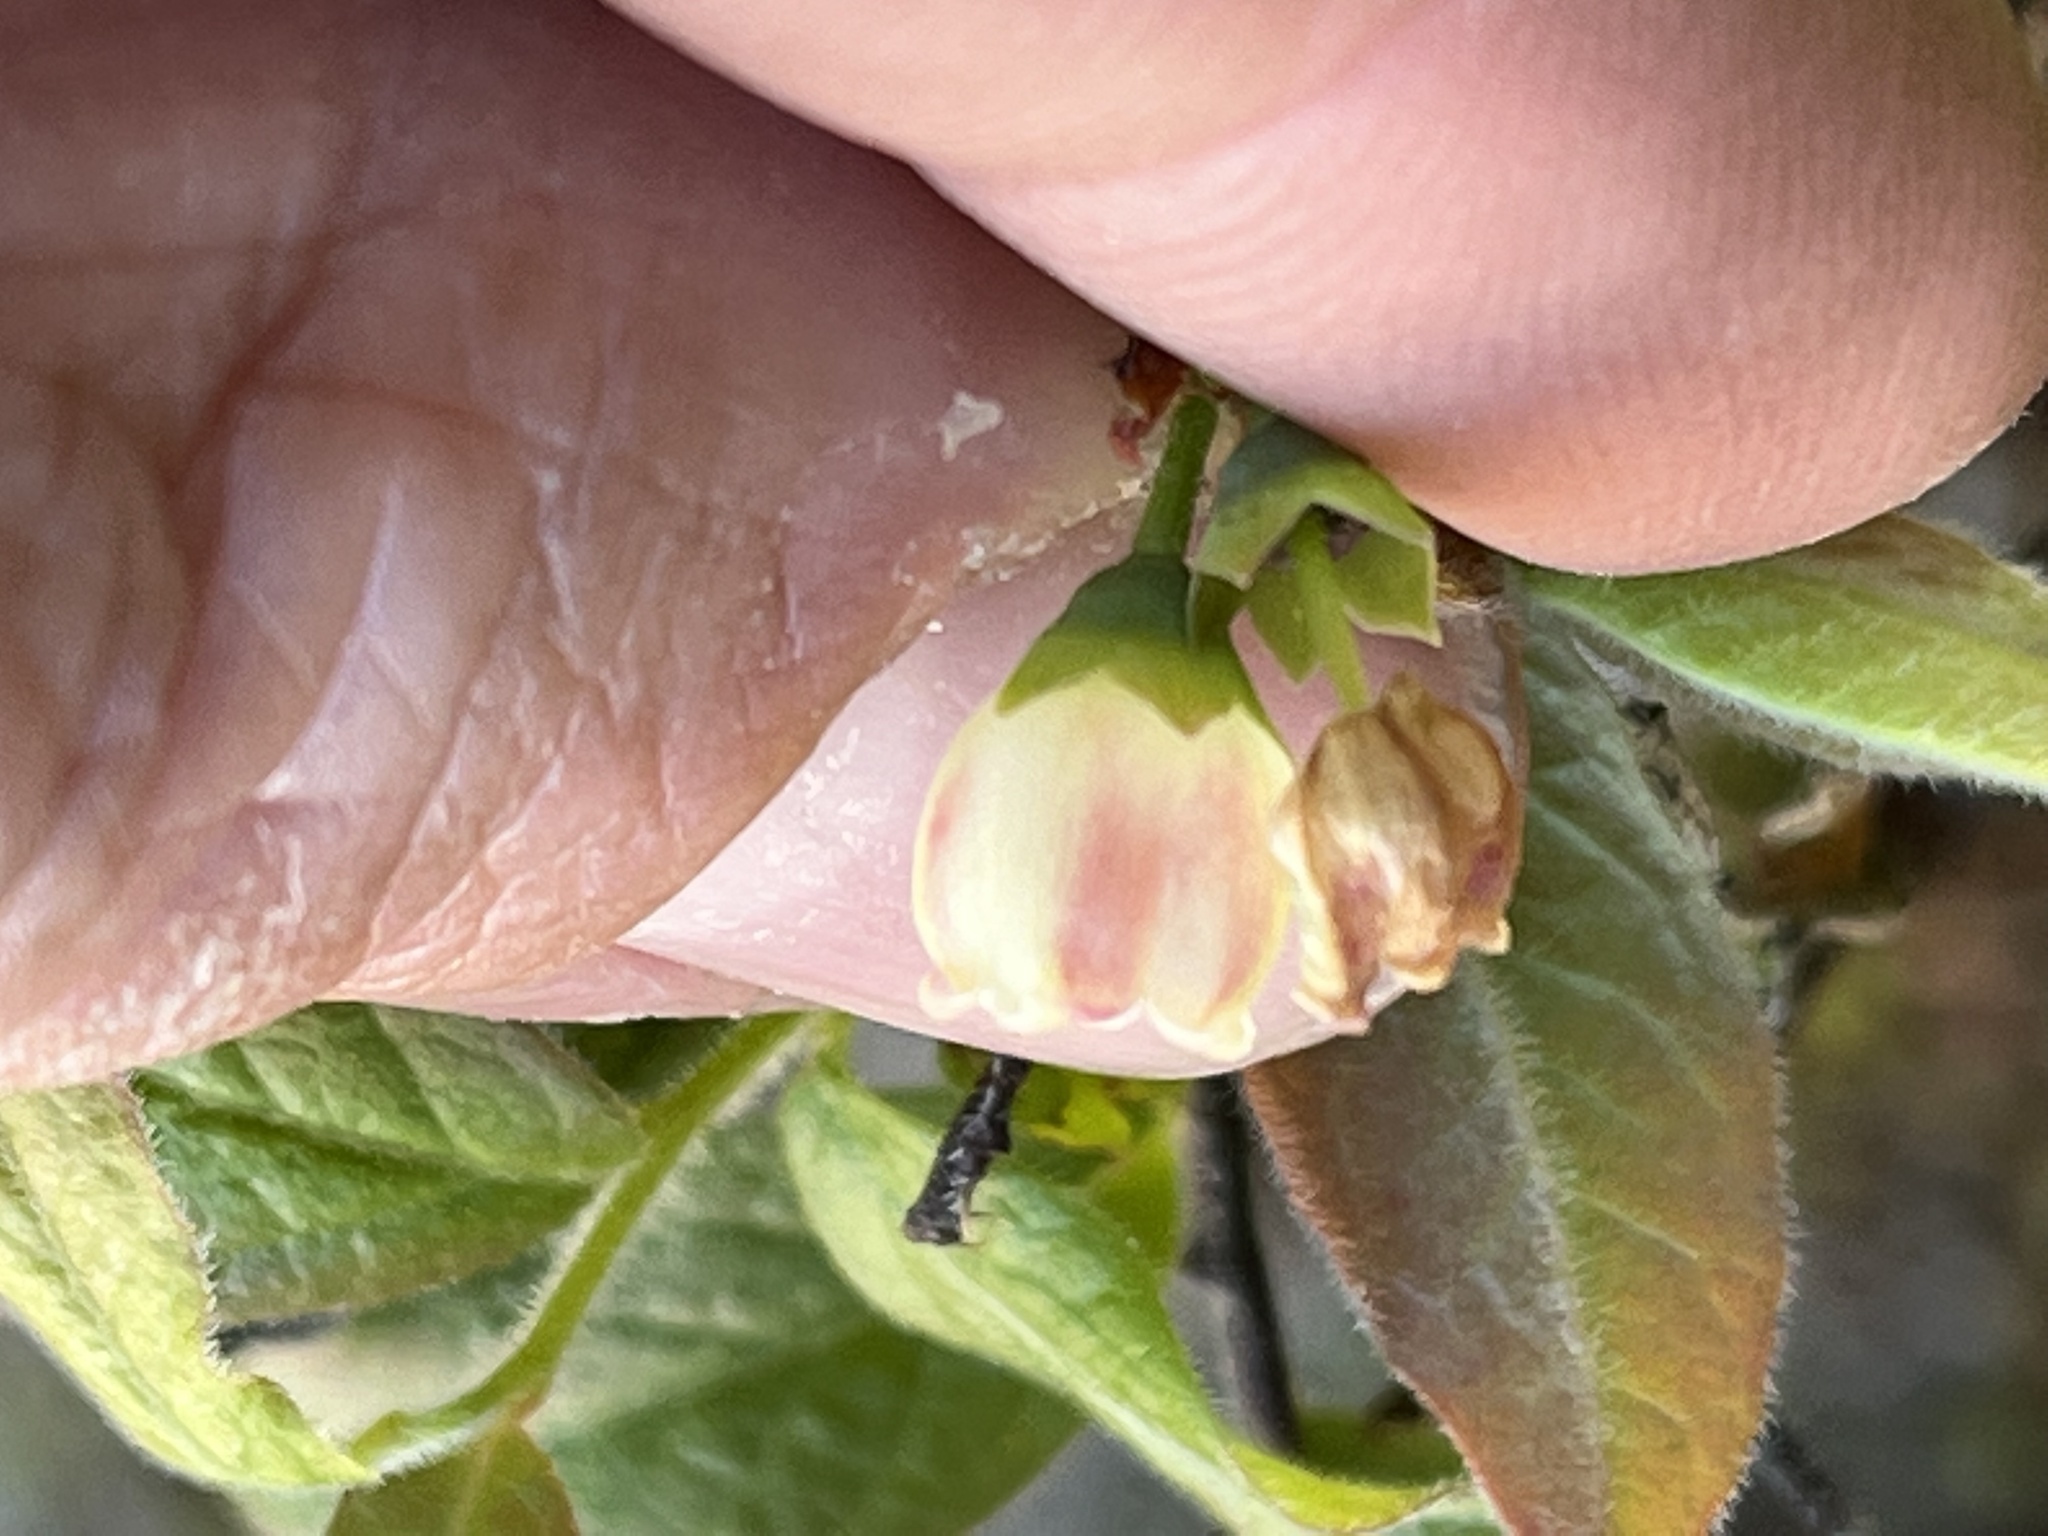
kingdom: Plantae
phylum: Tracheophyta
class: Magnoliopsida
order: Ericales
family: Ericaceae
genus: Vaccinium
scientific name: Vaccinium myrtilloides
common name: Canada blueberry
